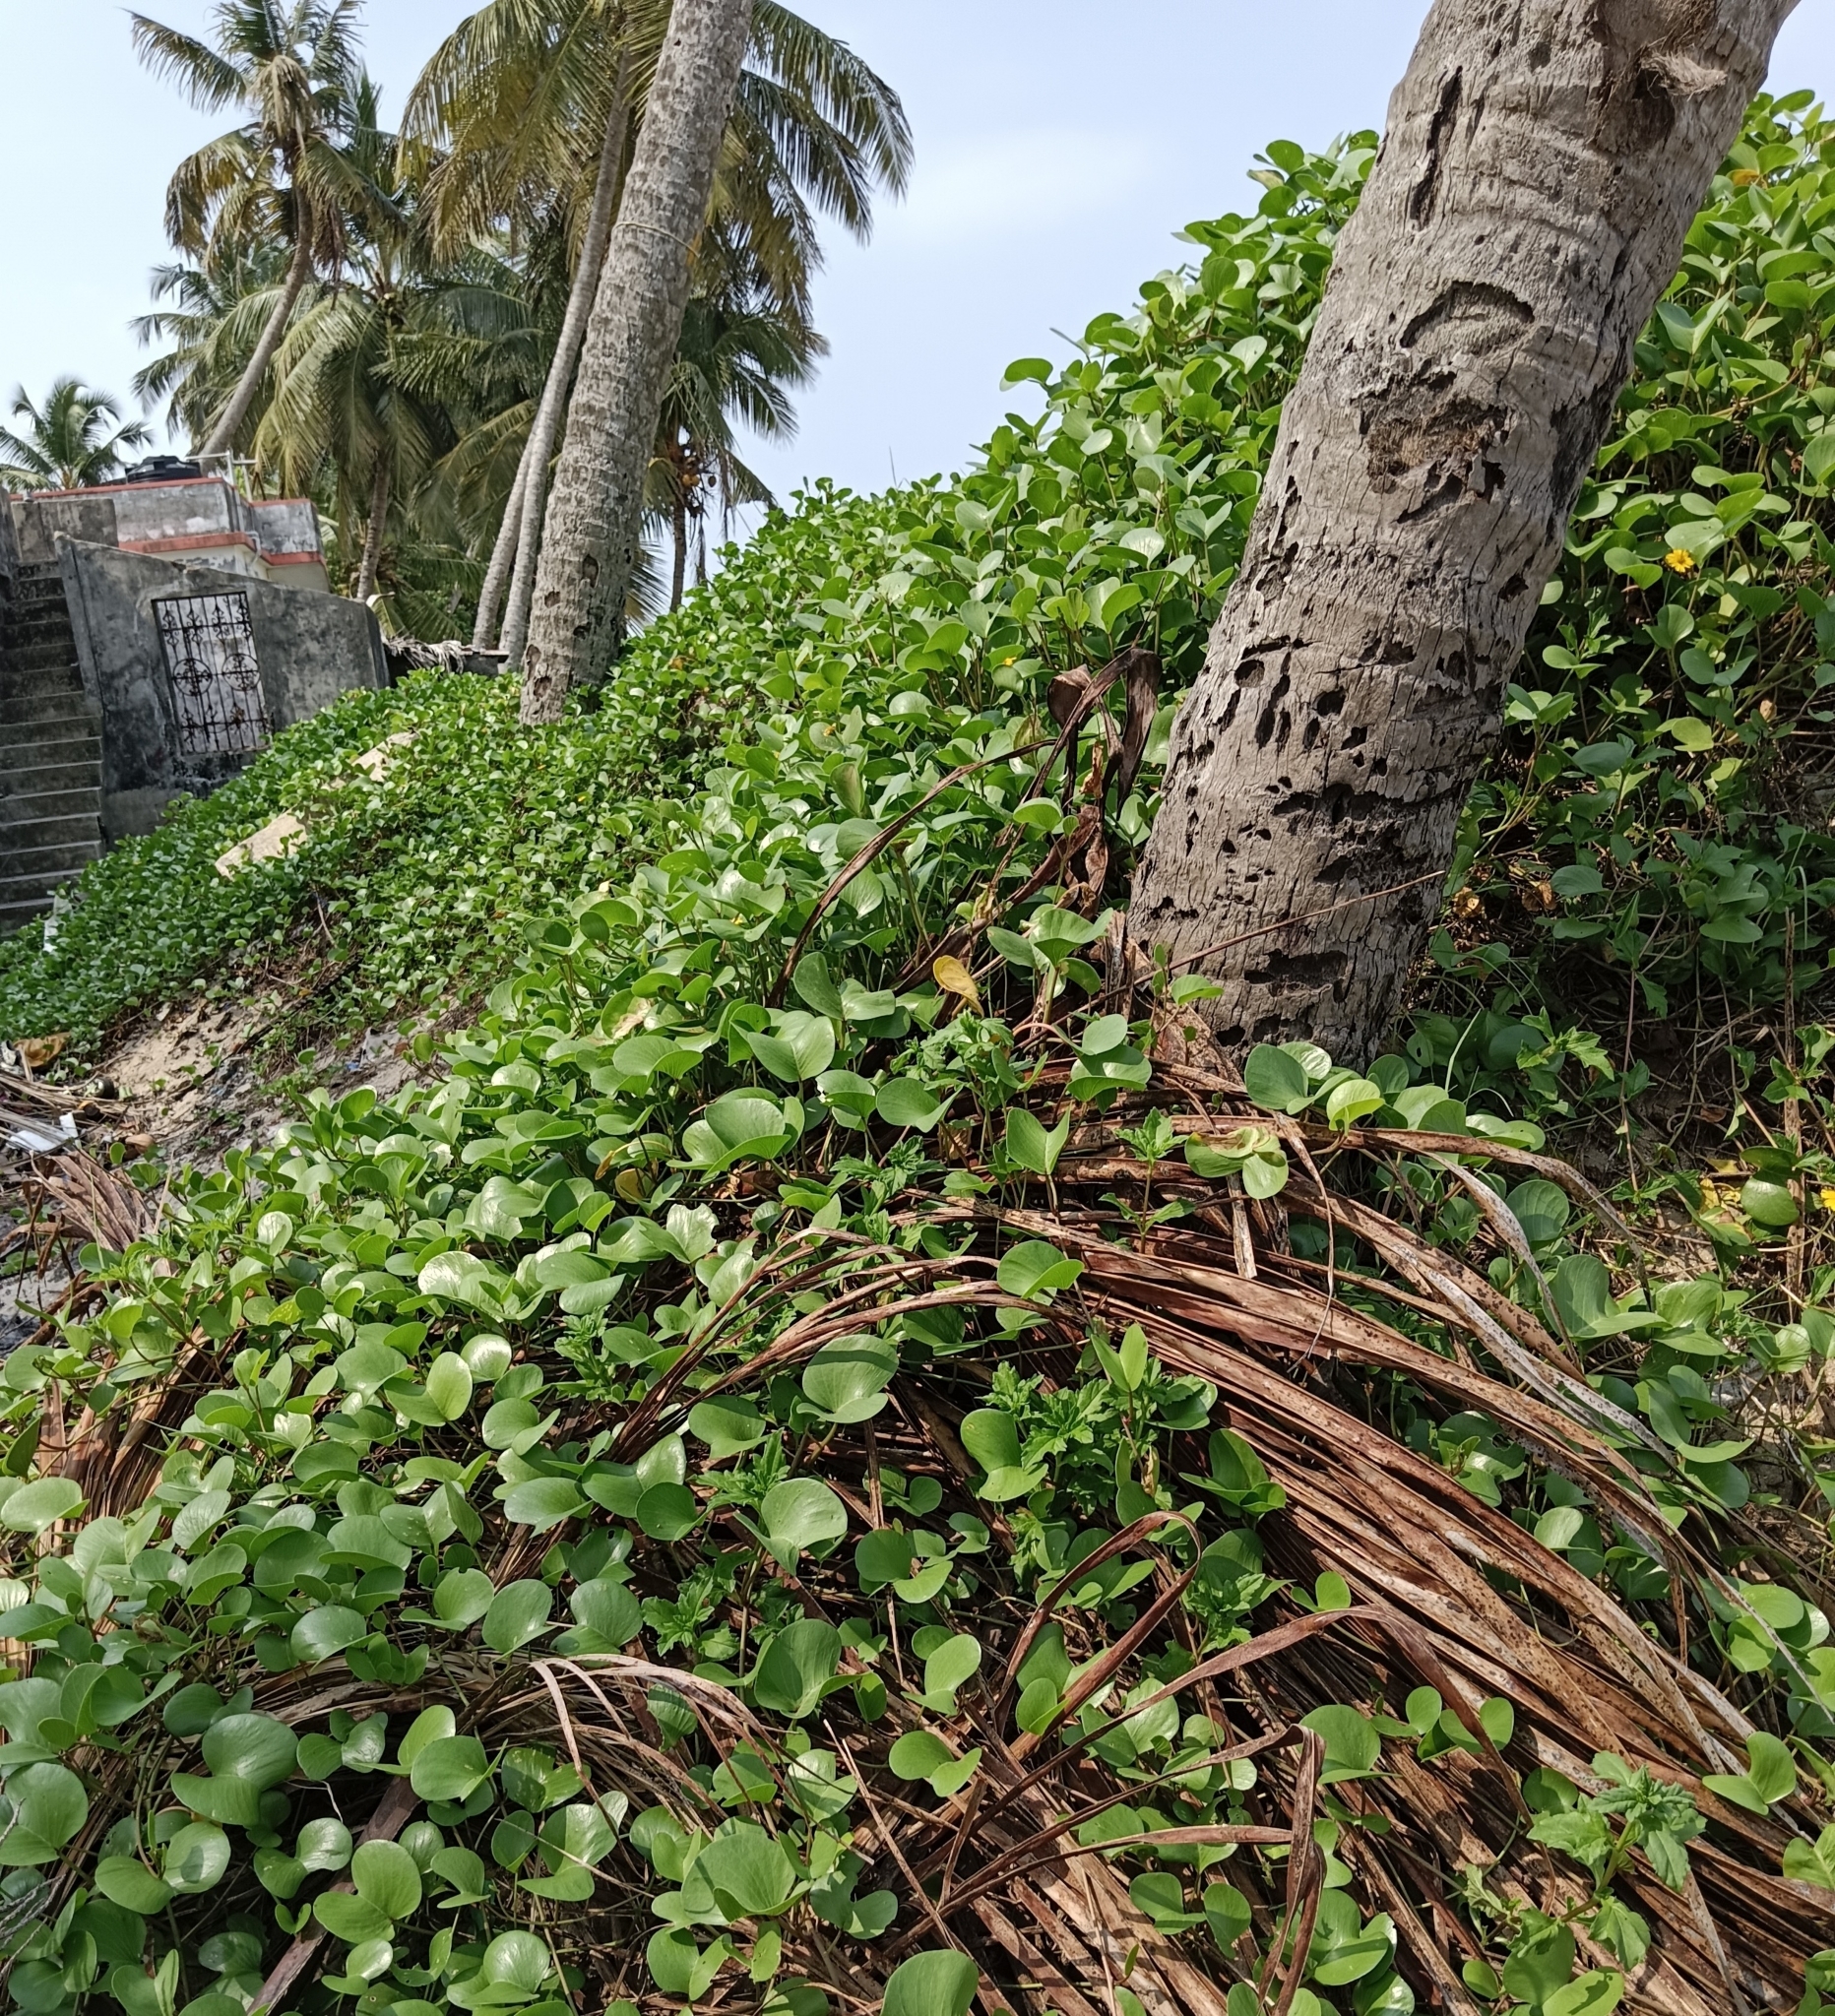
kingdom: Plantae
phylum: Tracheophyta
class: Magnoliopsida
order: Solanales
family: Convolvulaceae
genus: Ipomoea
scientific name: Ipomoea pes-caprae
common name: Beach morning glory
